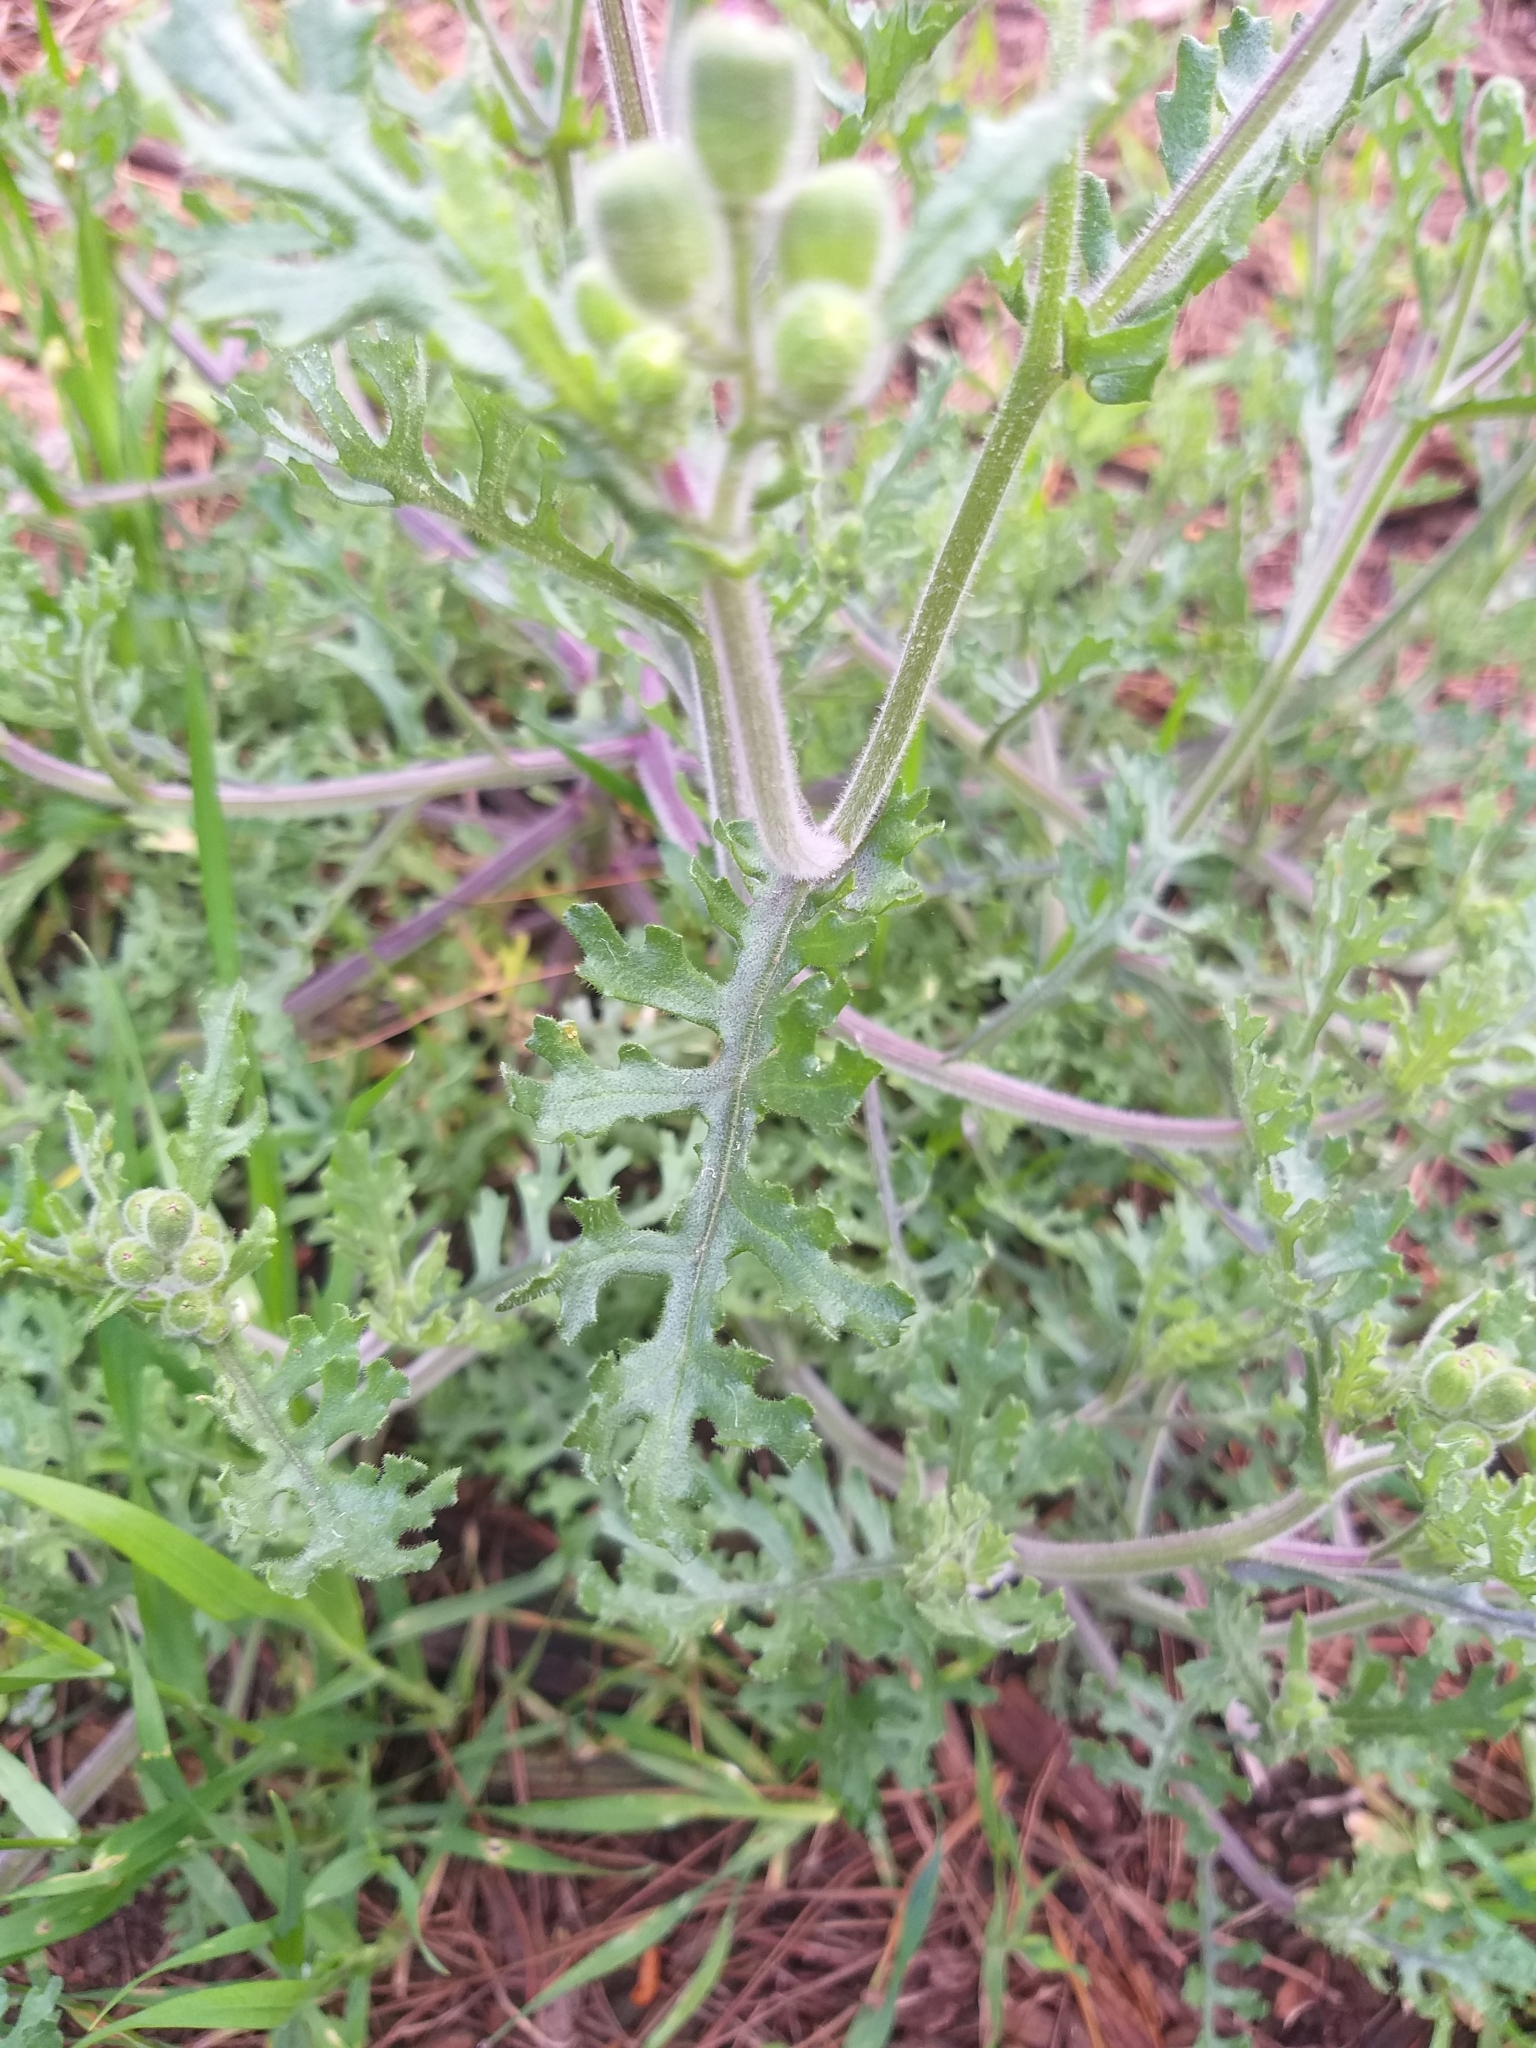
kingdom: Plantae
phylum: Tracheophyta
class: Magnoliopsida
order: Asterales
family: Asteraceae
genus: Senecio
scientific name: Senecio arenarius
